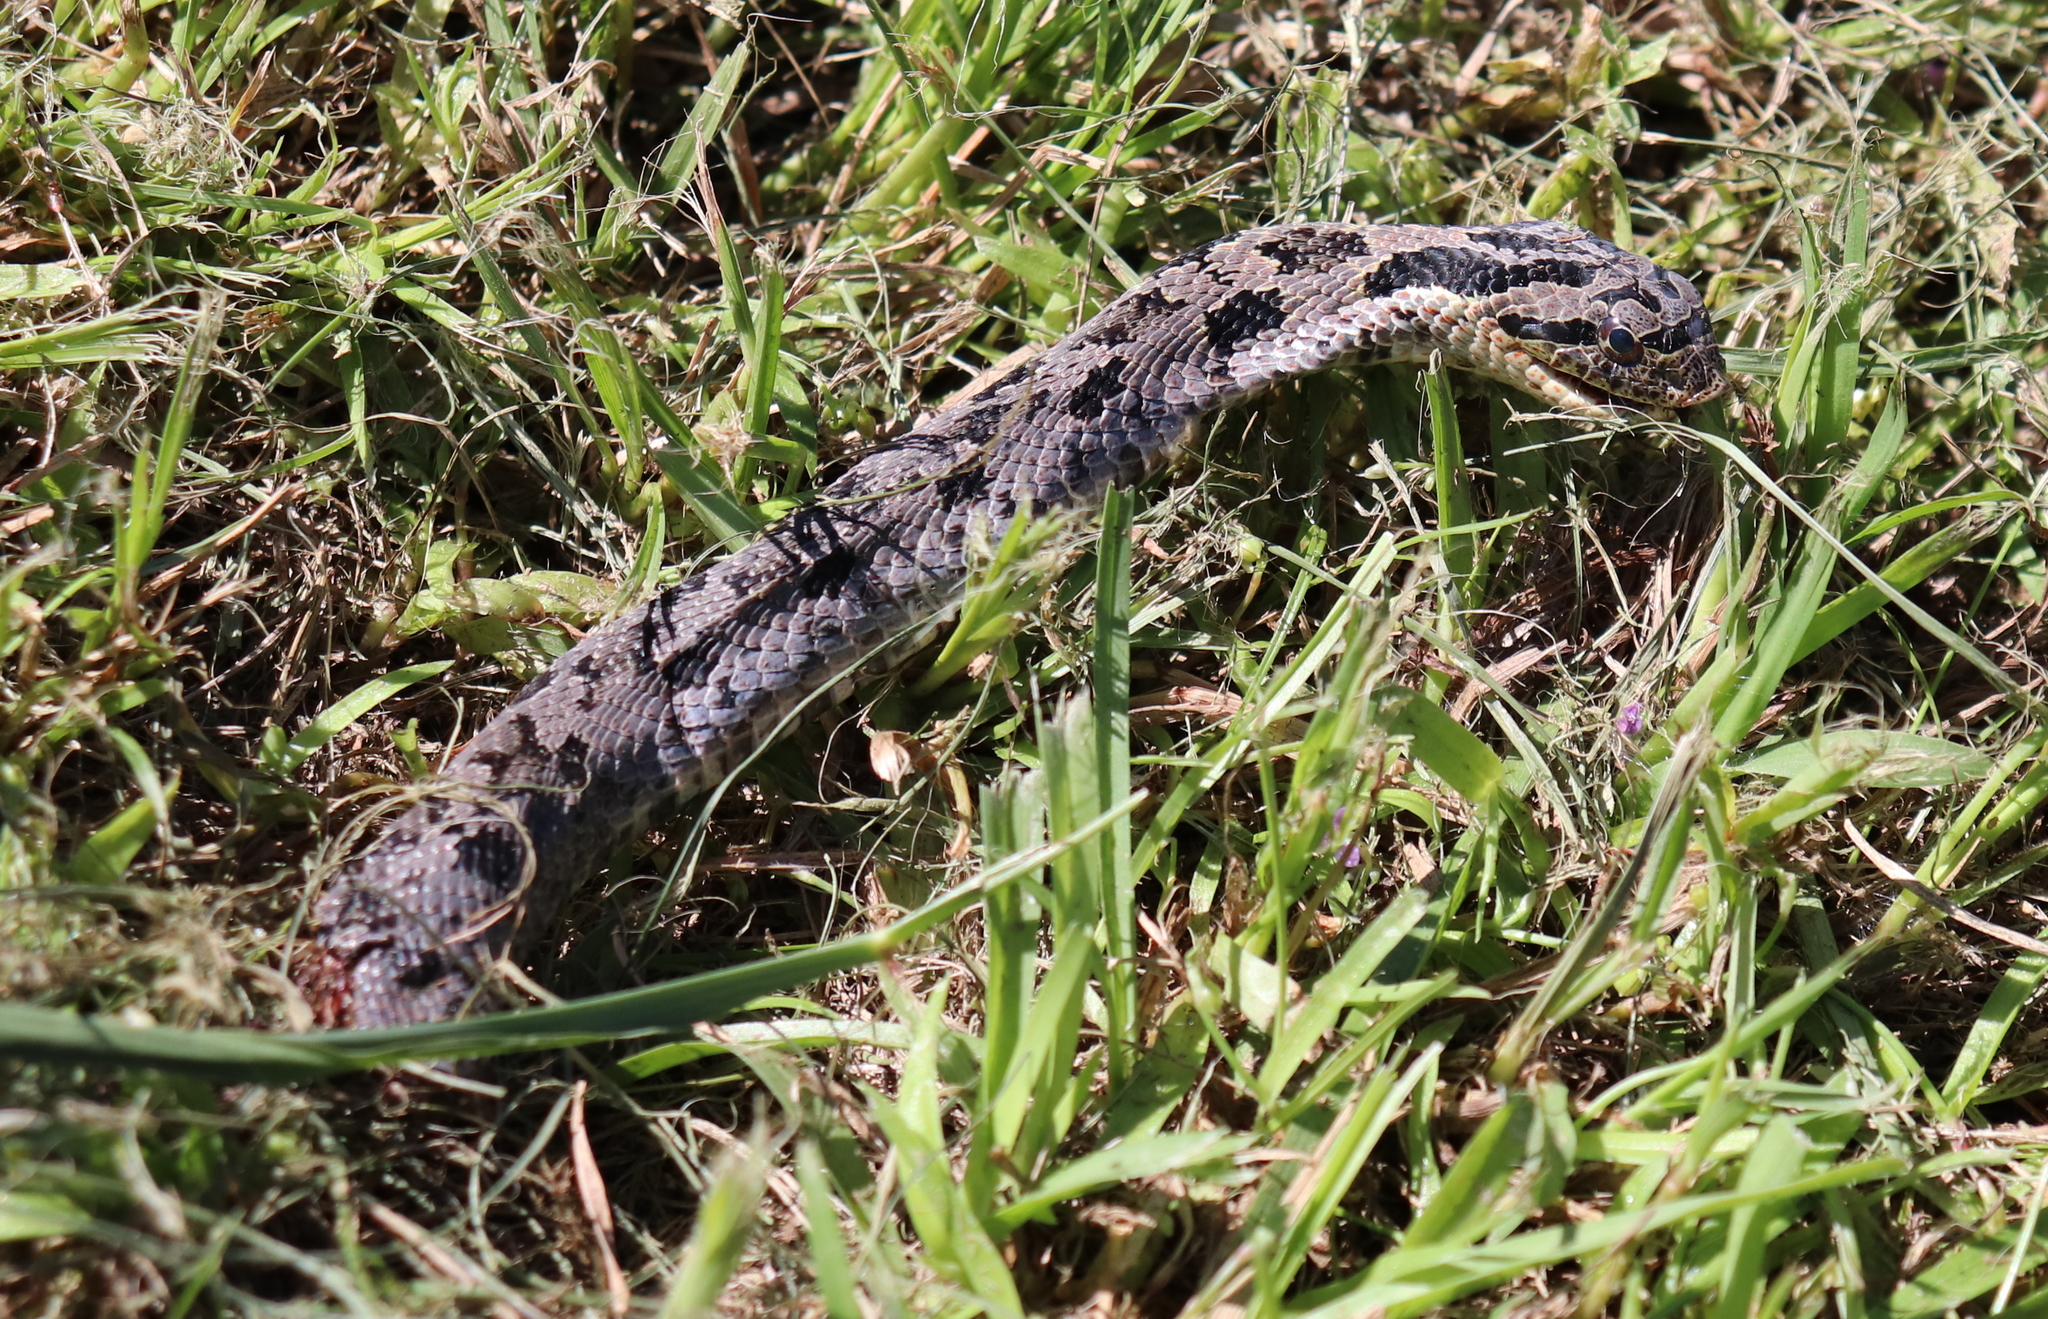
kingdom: Animalia
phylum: Chordata
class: Squamata
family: Colubridae
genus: Heterodon
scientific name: Heterodon platirhinos
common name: Eastern hognose snake
